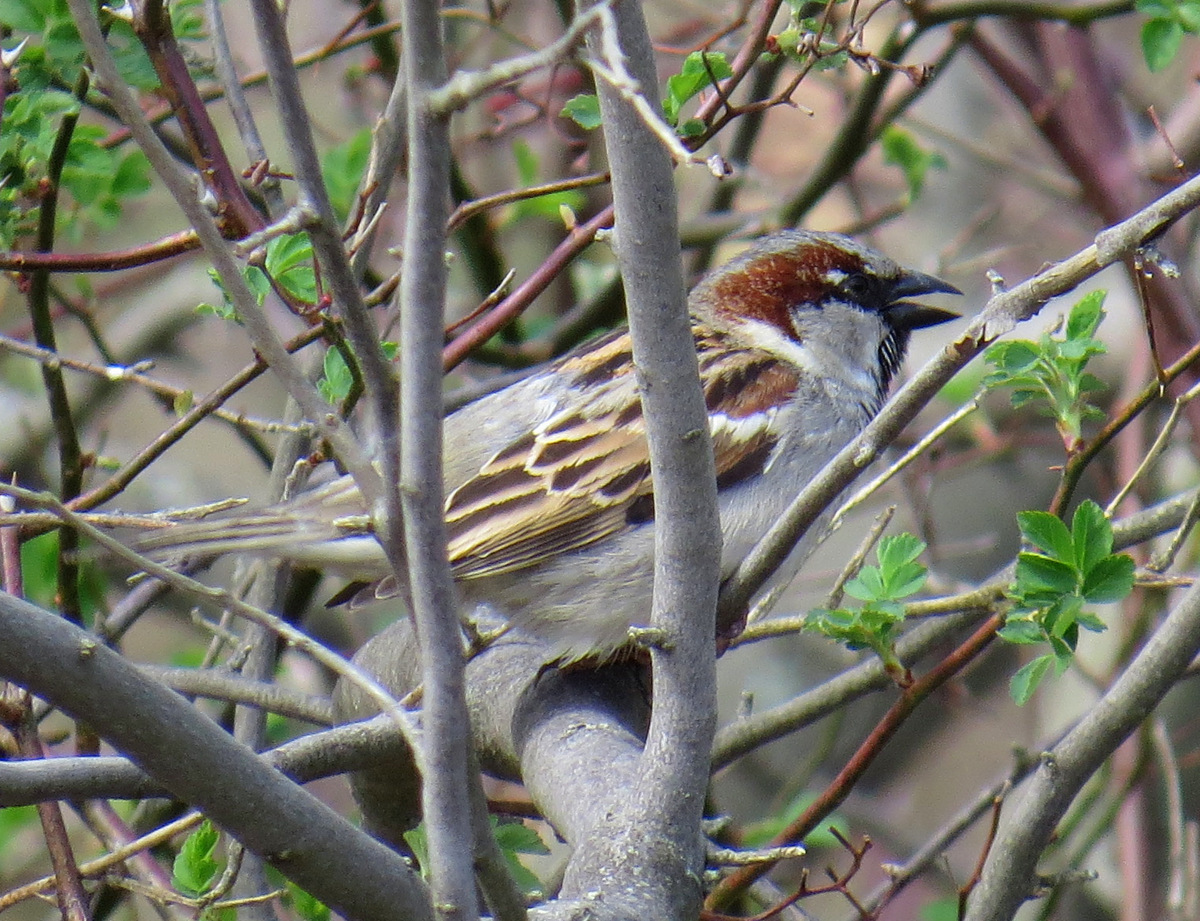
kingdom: Animalia
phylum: Chordata
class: Aves
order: Passeriformes
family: Passeridae
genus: Passer
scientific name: Passer domesticus
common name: House sparrow
